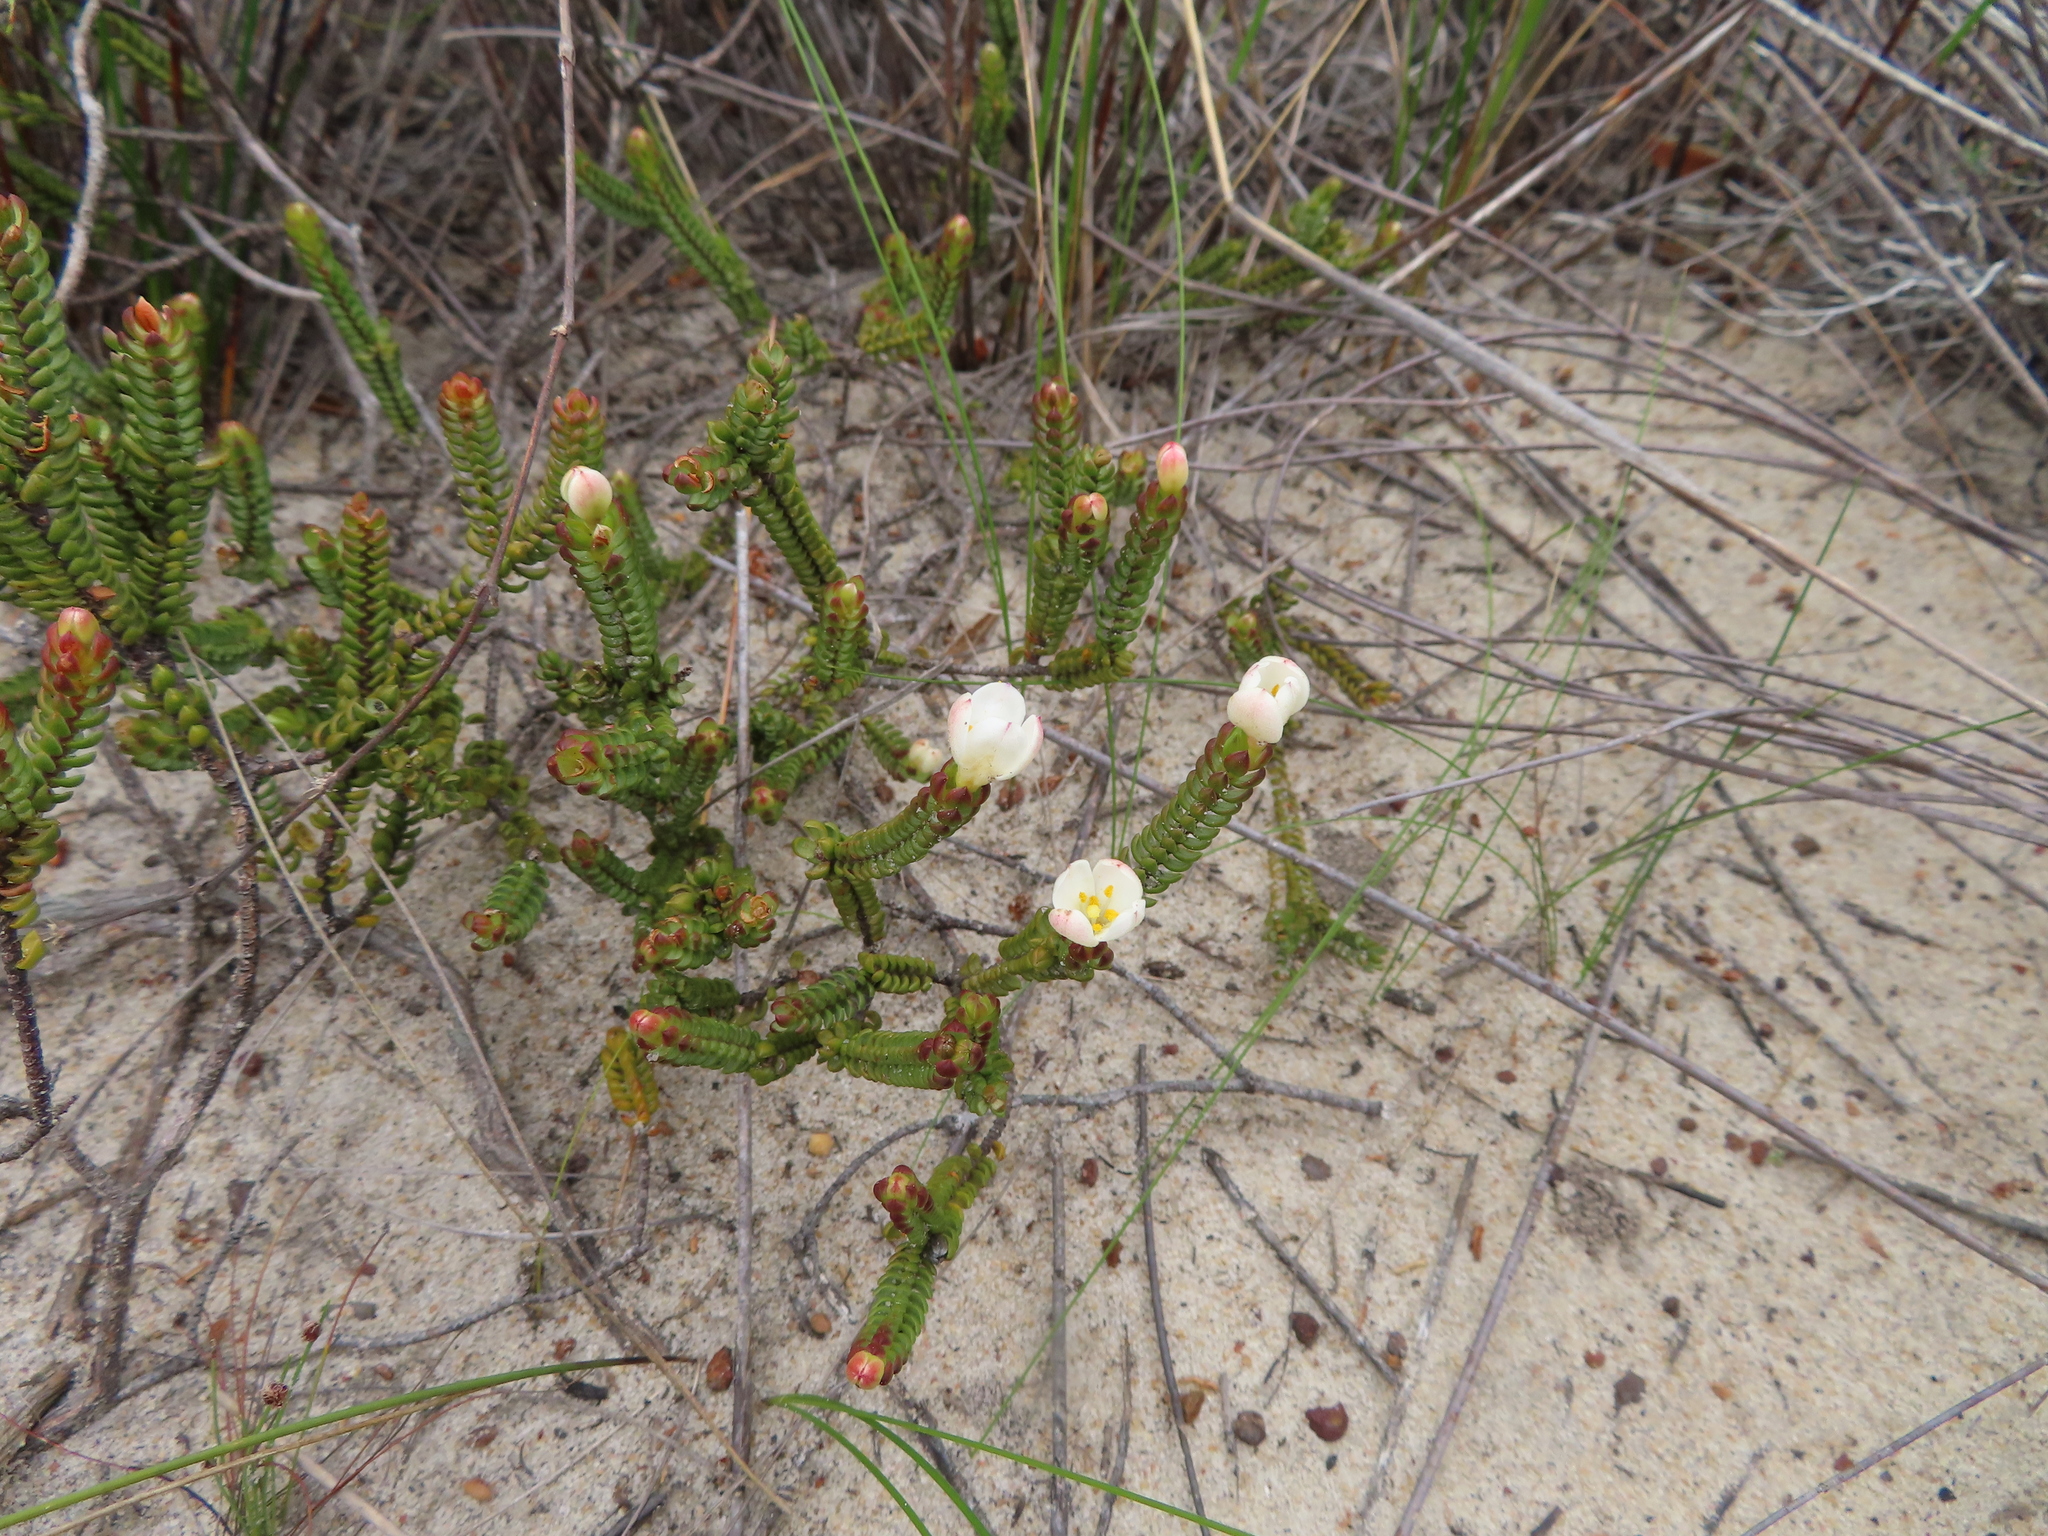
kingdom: Plantae
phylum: Tracheophyta
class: Magnoliopsida
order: Malvales
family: Thymelaeaceae
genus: Lachnaea
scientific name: Lachnaea grandiflora
